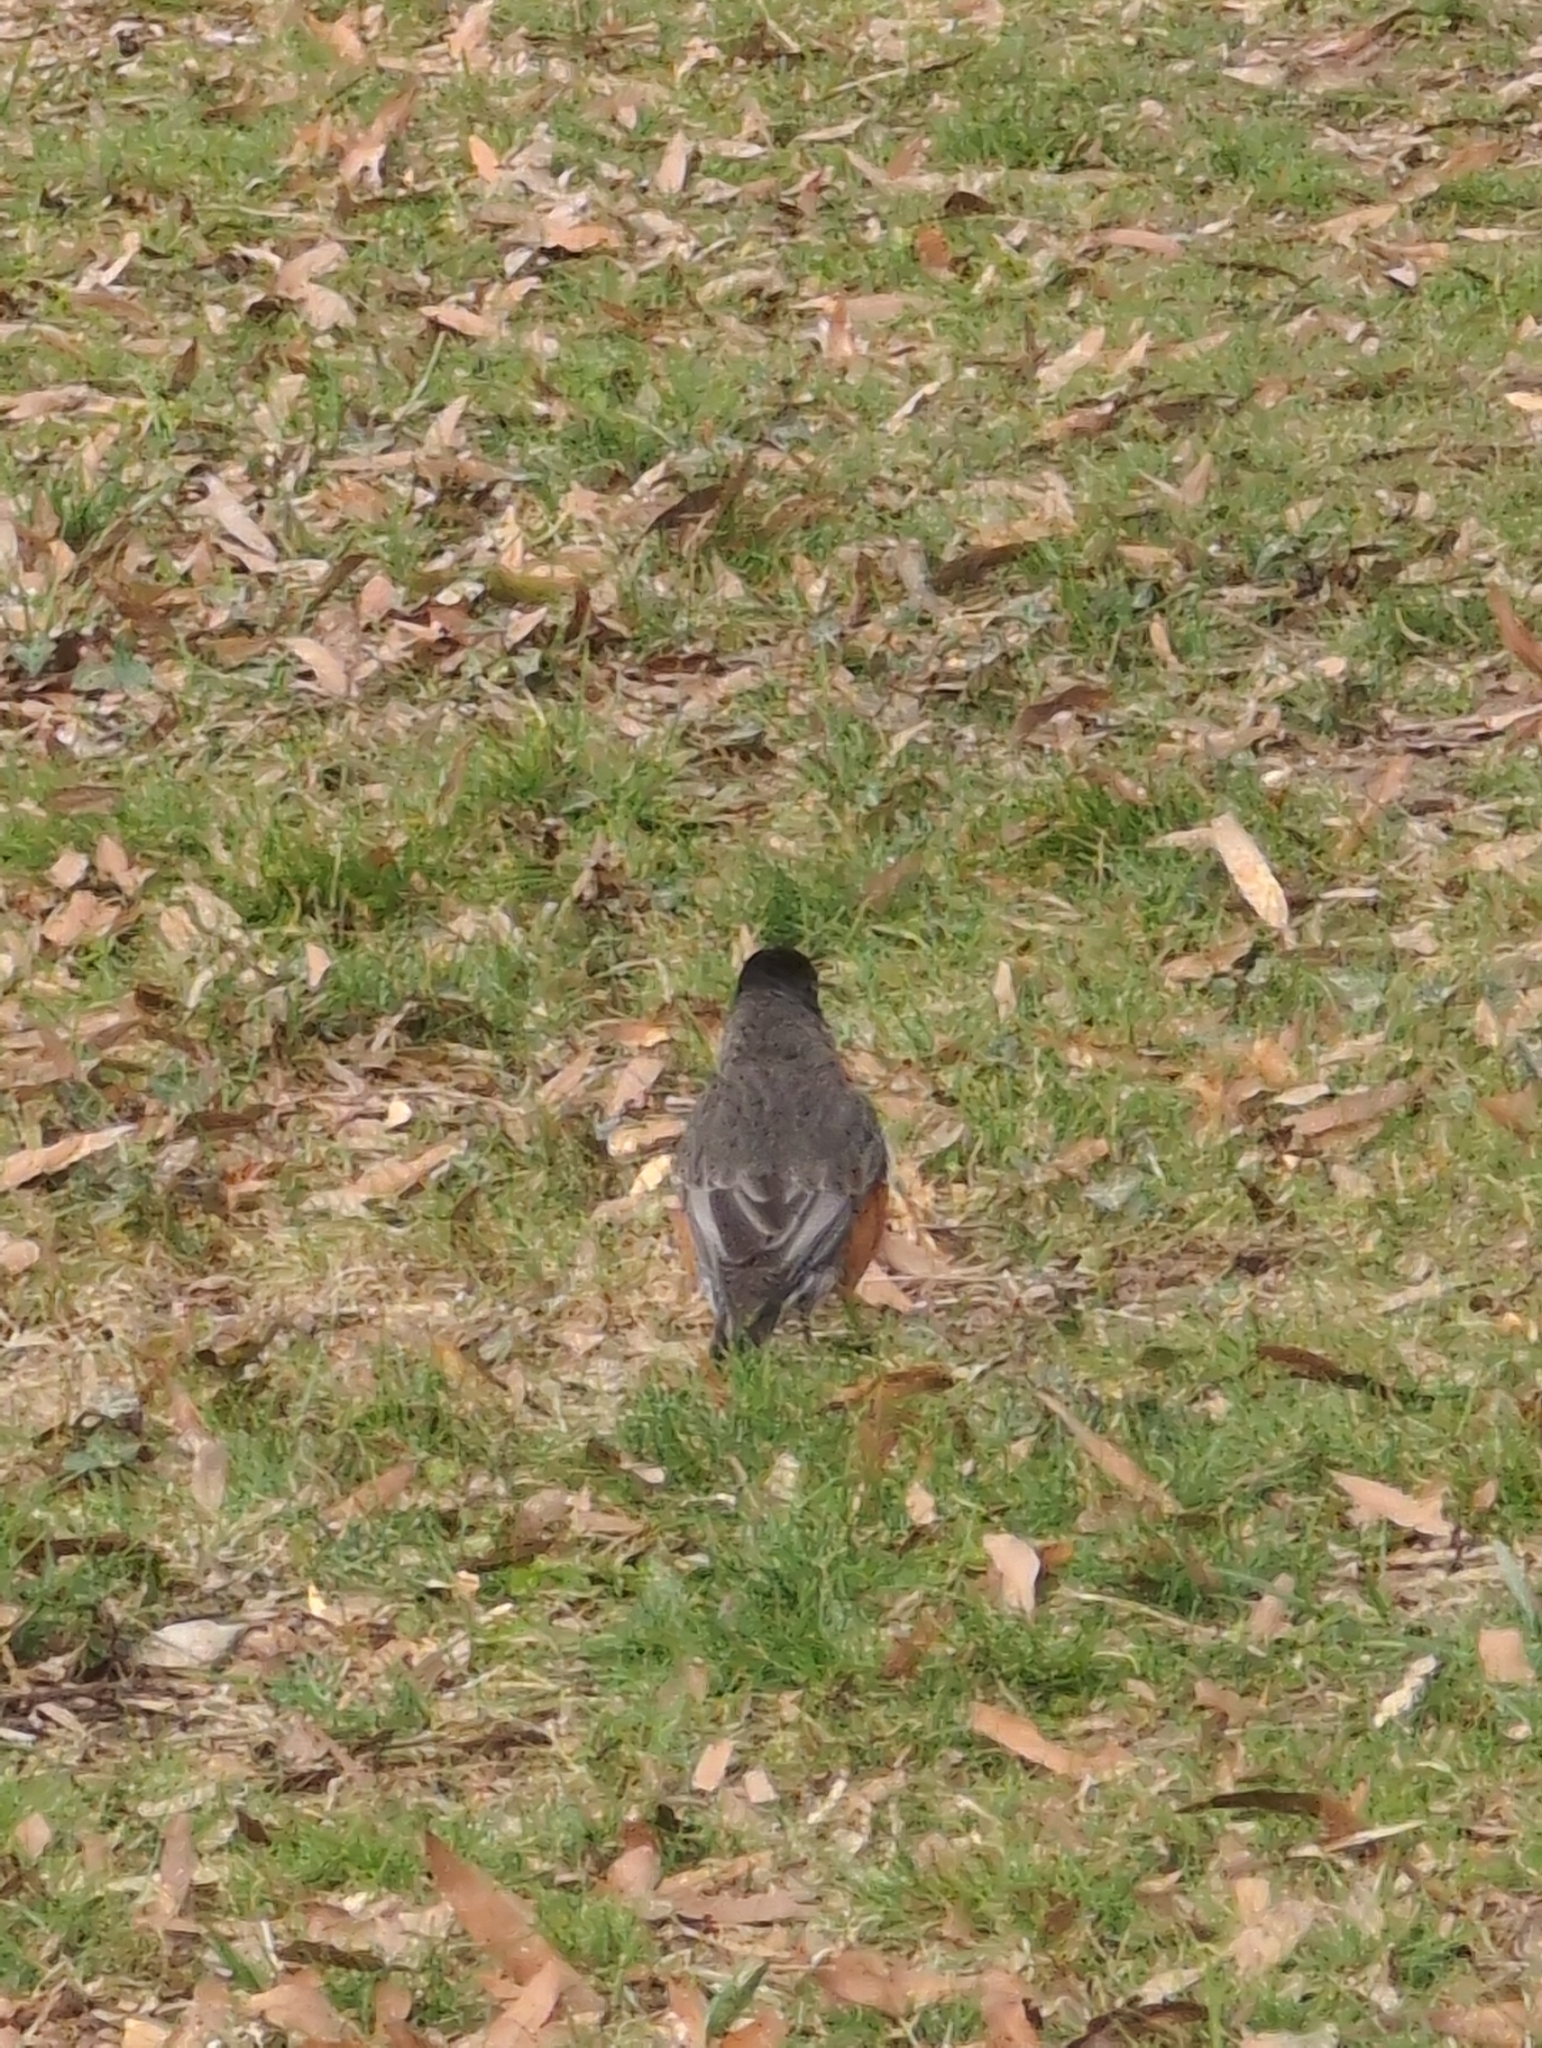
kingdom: Animalia
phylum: Chordata
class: Aves
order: Passeriformes
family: Turdidae
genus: Turdus
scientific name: Turdus migratorius
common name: American robin
